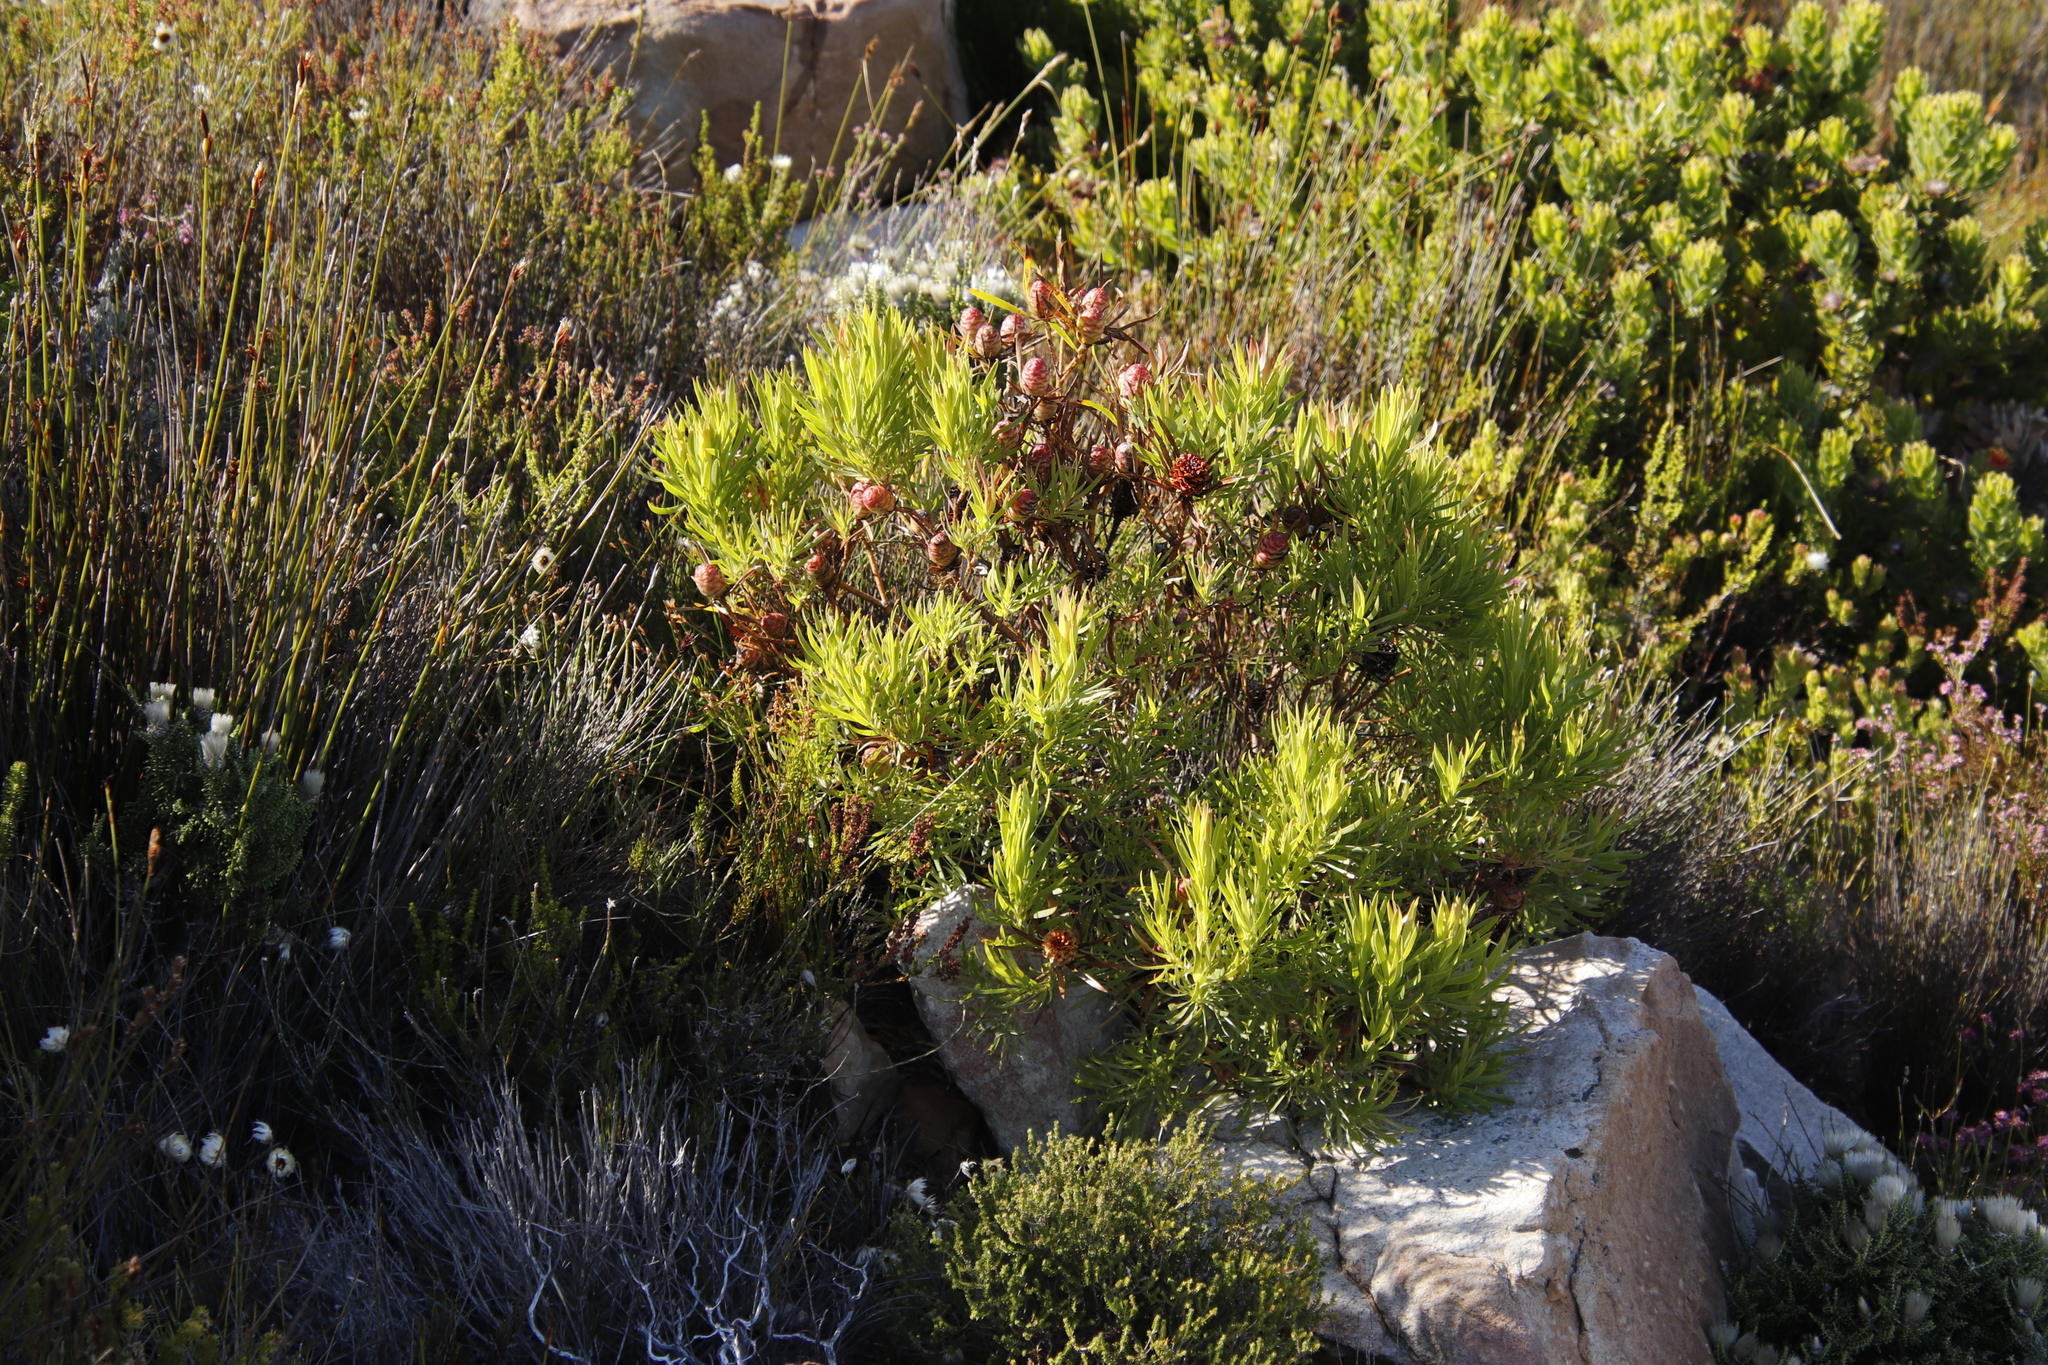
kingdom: Plantae
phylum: Tracheophyta
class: Magnoliopsida
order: Proteales
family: Proteaceae
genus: Leucadendron
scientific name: Leucadendron xanthoconus
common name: Sickle-leaf conebush
